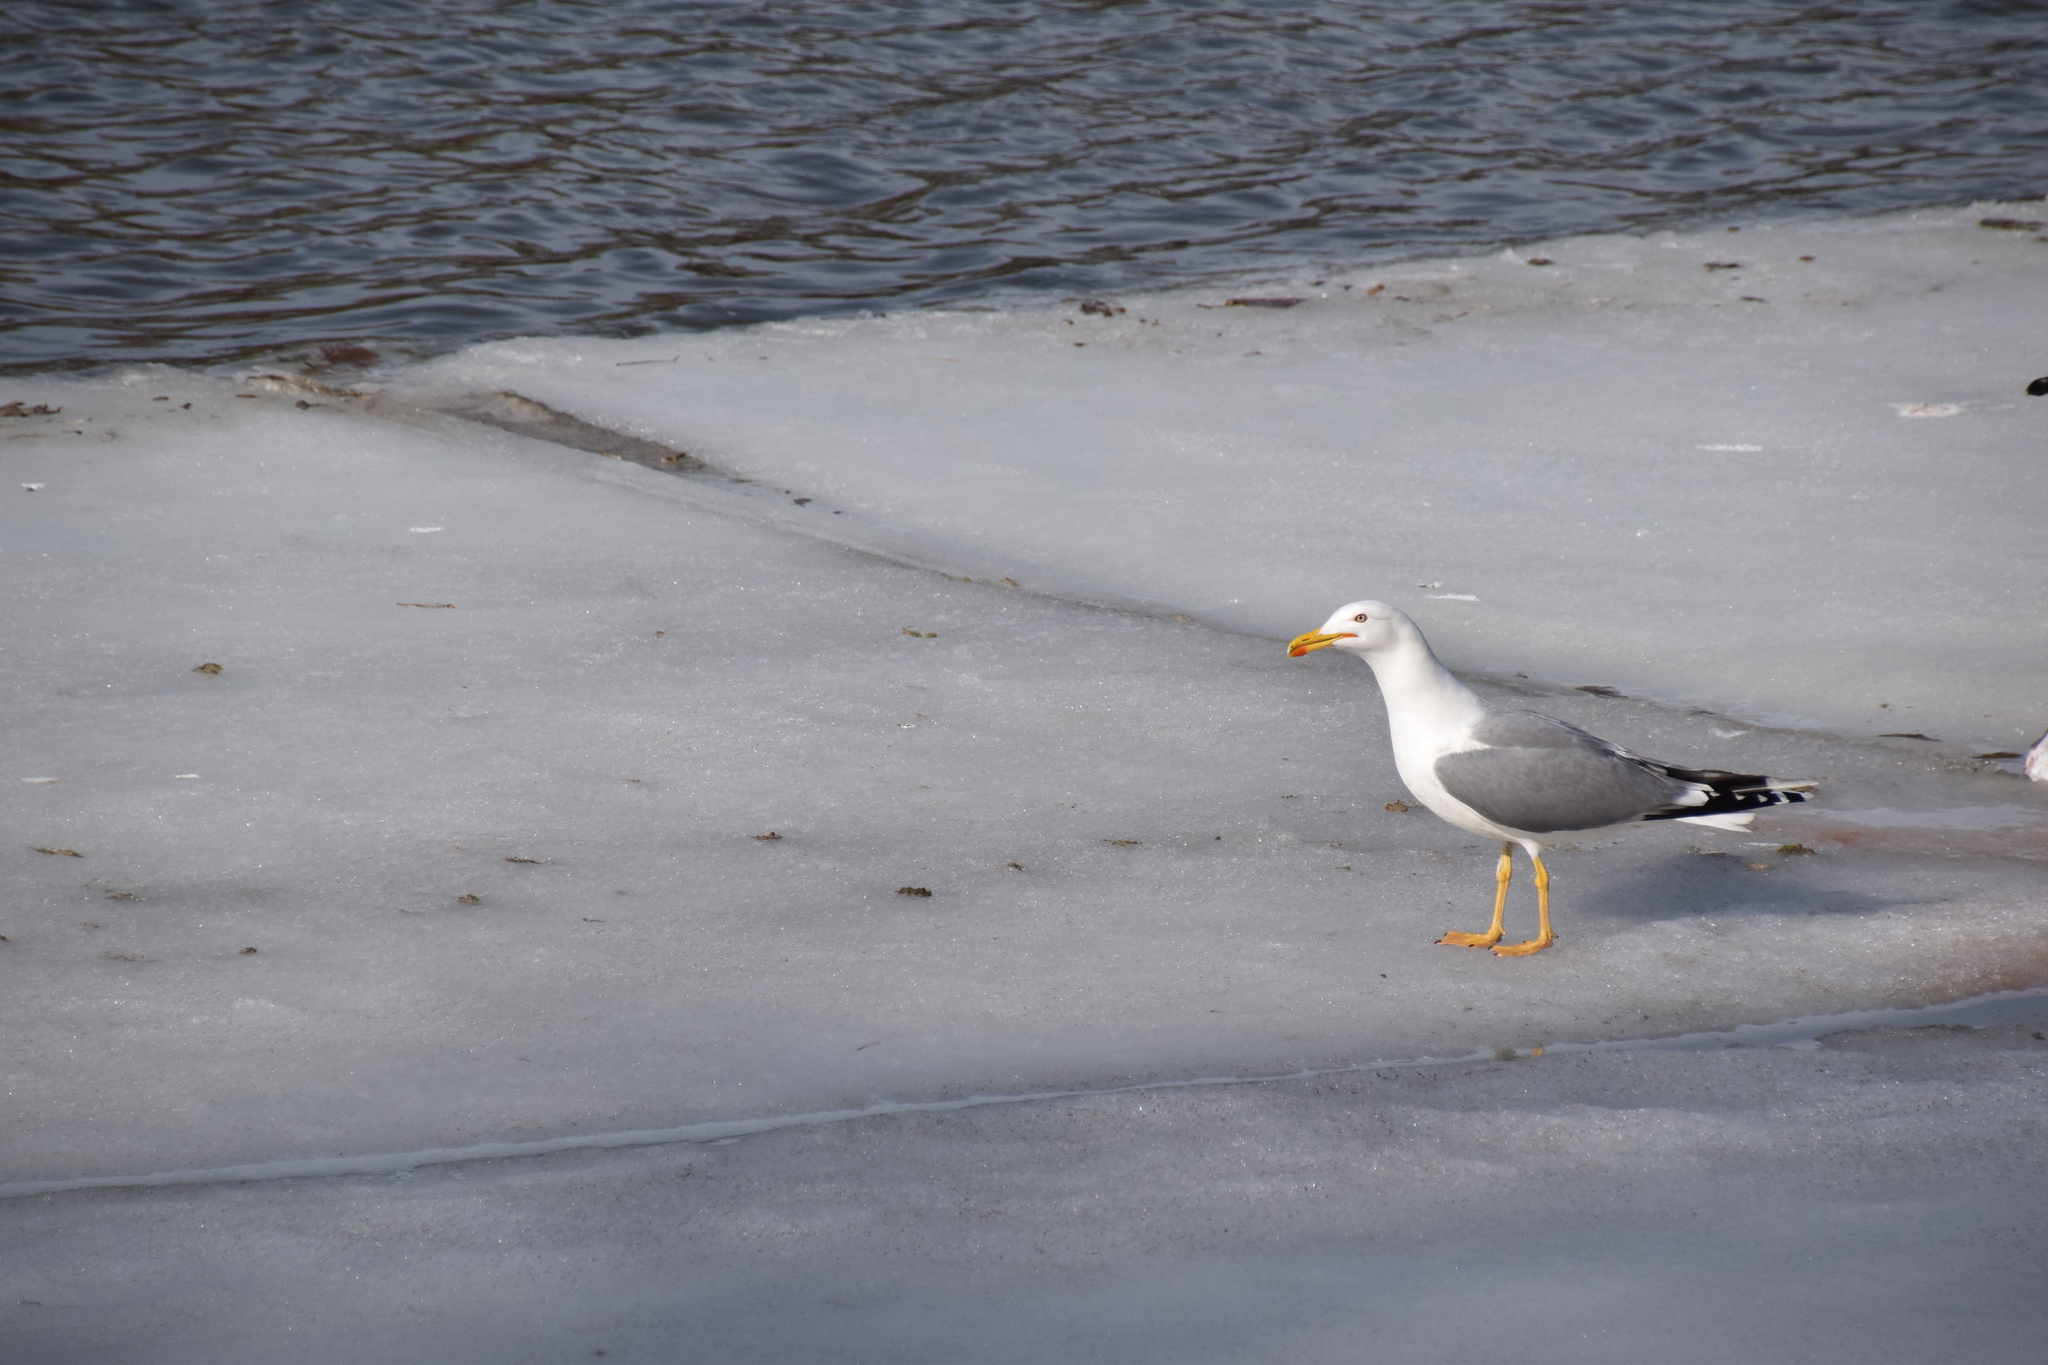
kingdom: Animalia
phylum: Chordata
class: Aves
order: Charadriiformes
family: Laridae
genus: Larus
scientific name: Larus michahellis
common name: Yellow-legged gull
